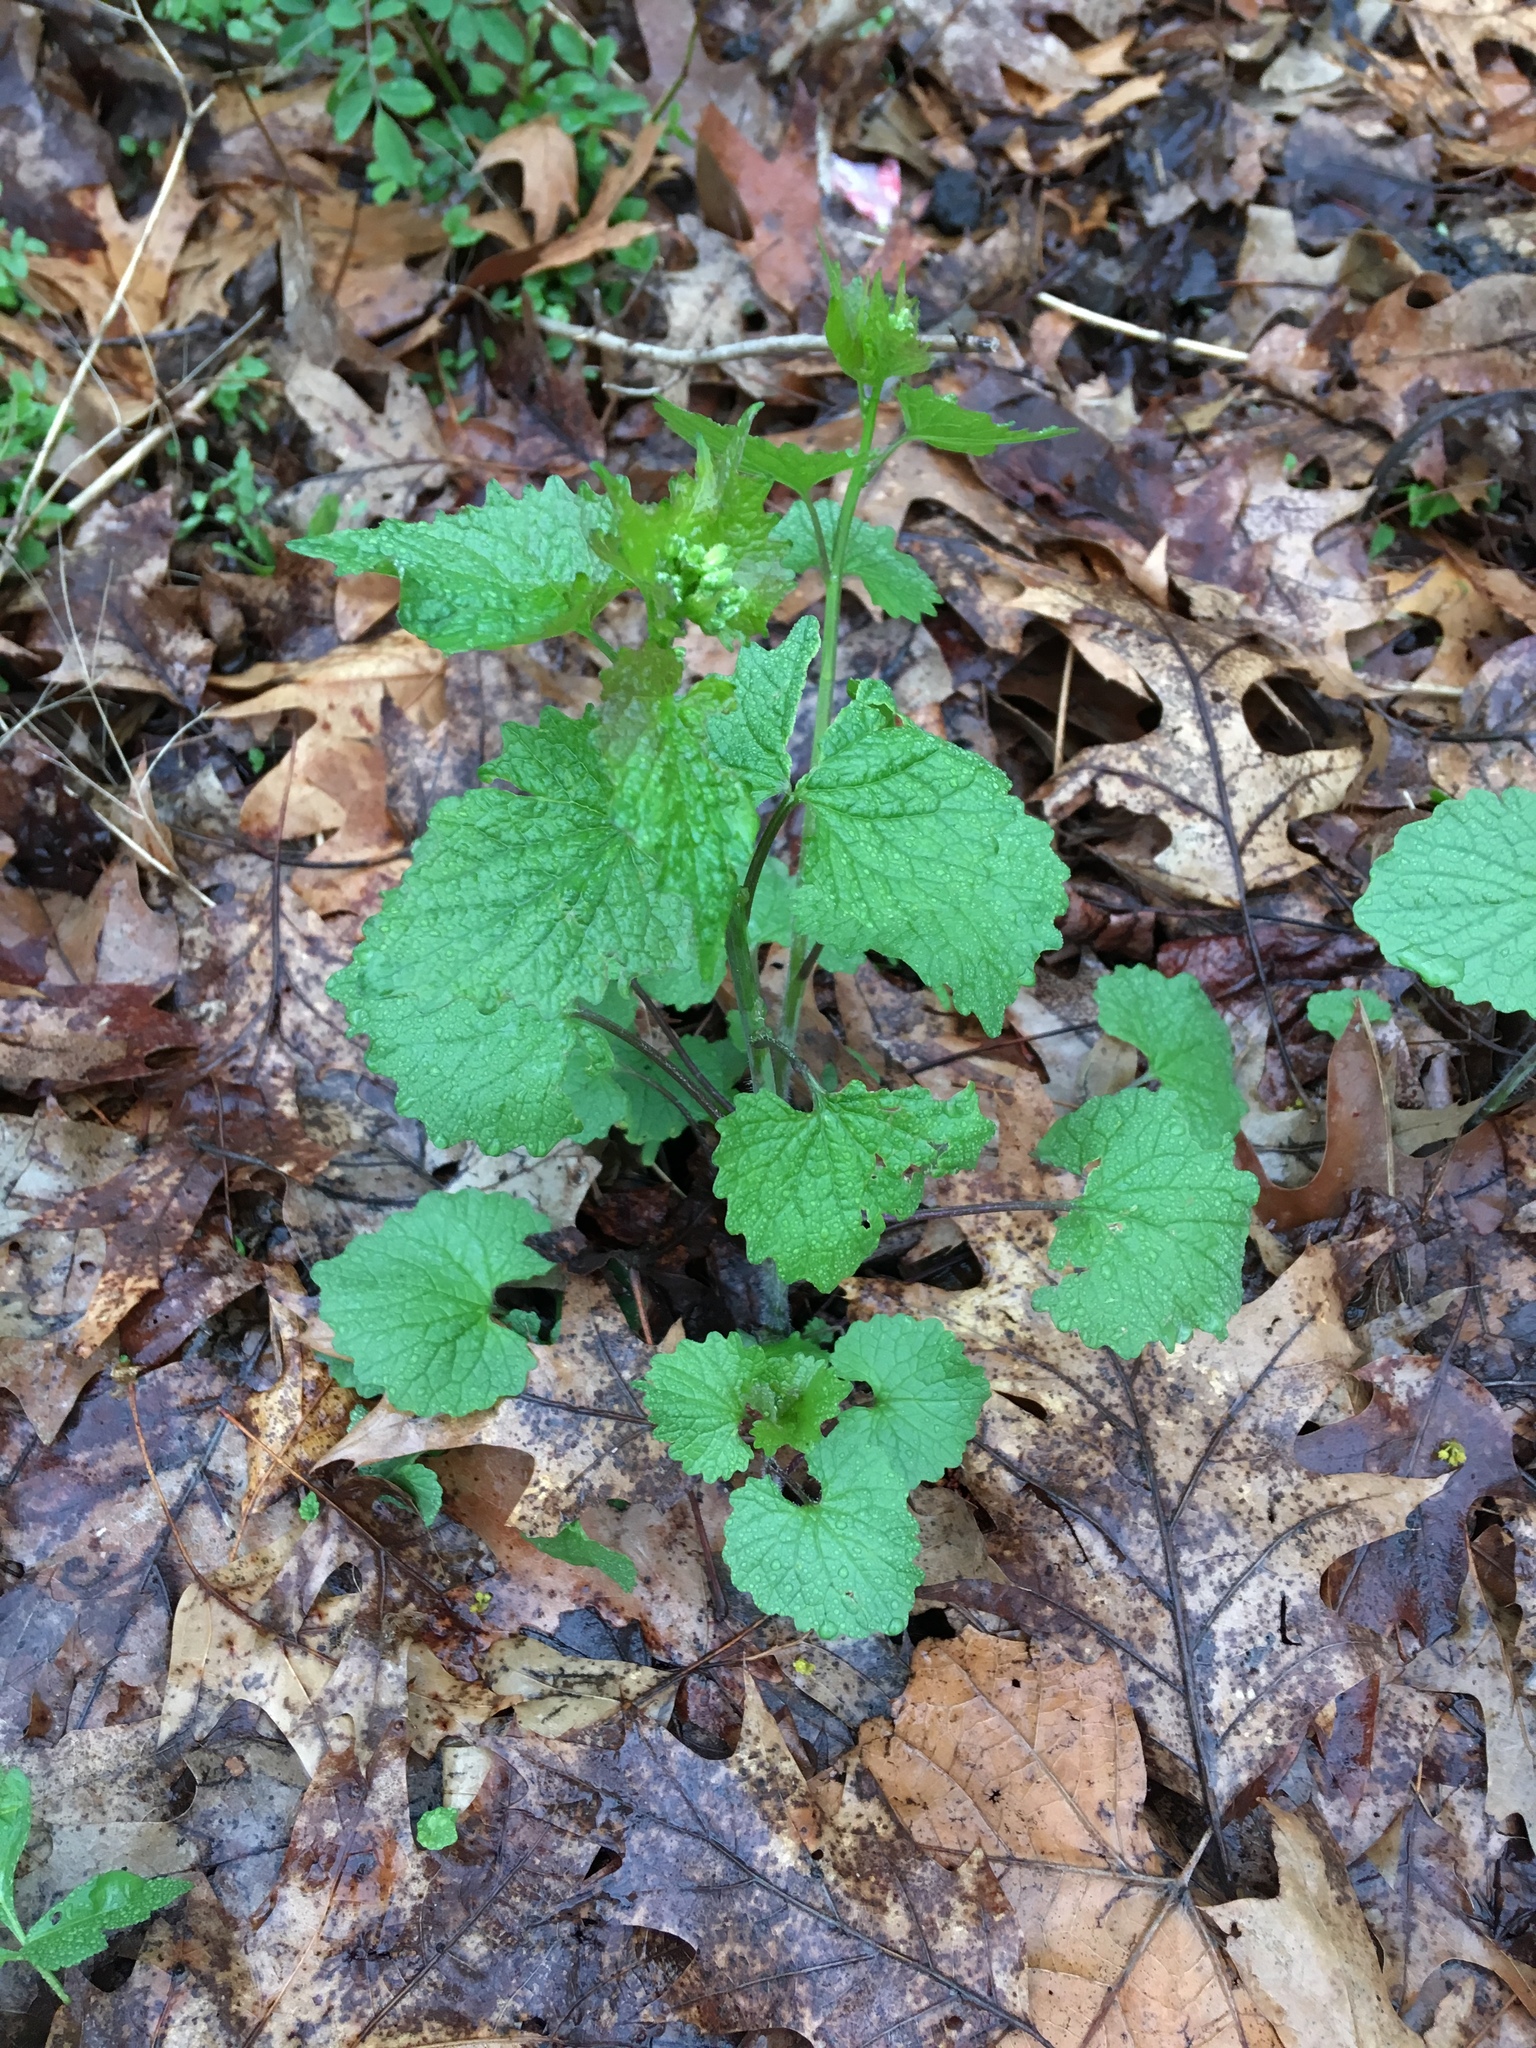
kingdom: Plantae
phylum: Tracheophyta
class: Magnoliopsida
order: Brassicales
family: Brassicaceae
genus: Alliaria
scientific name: Alliaria petiolata
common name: Garlic mustard
